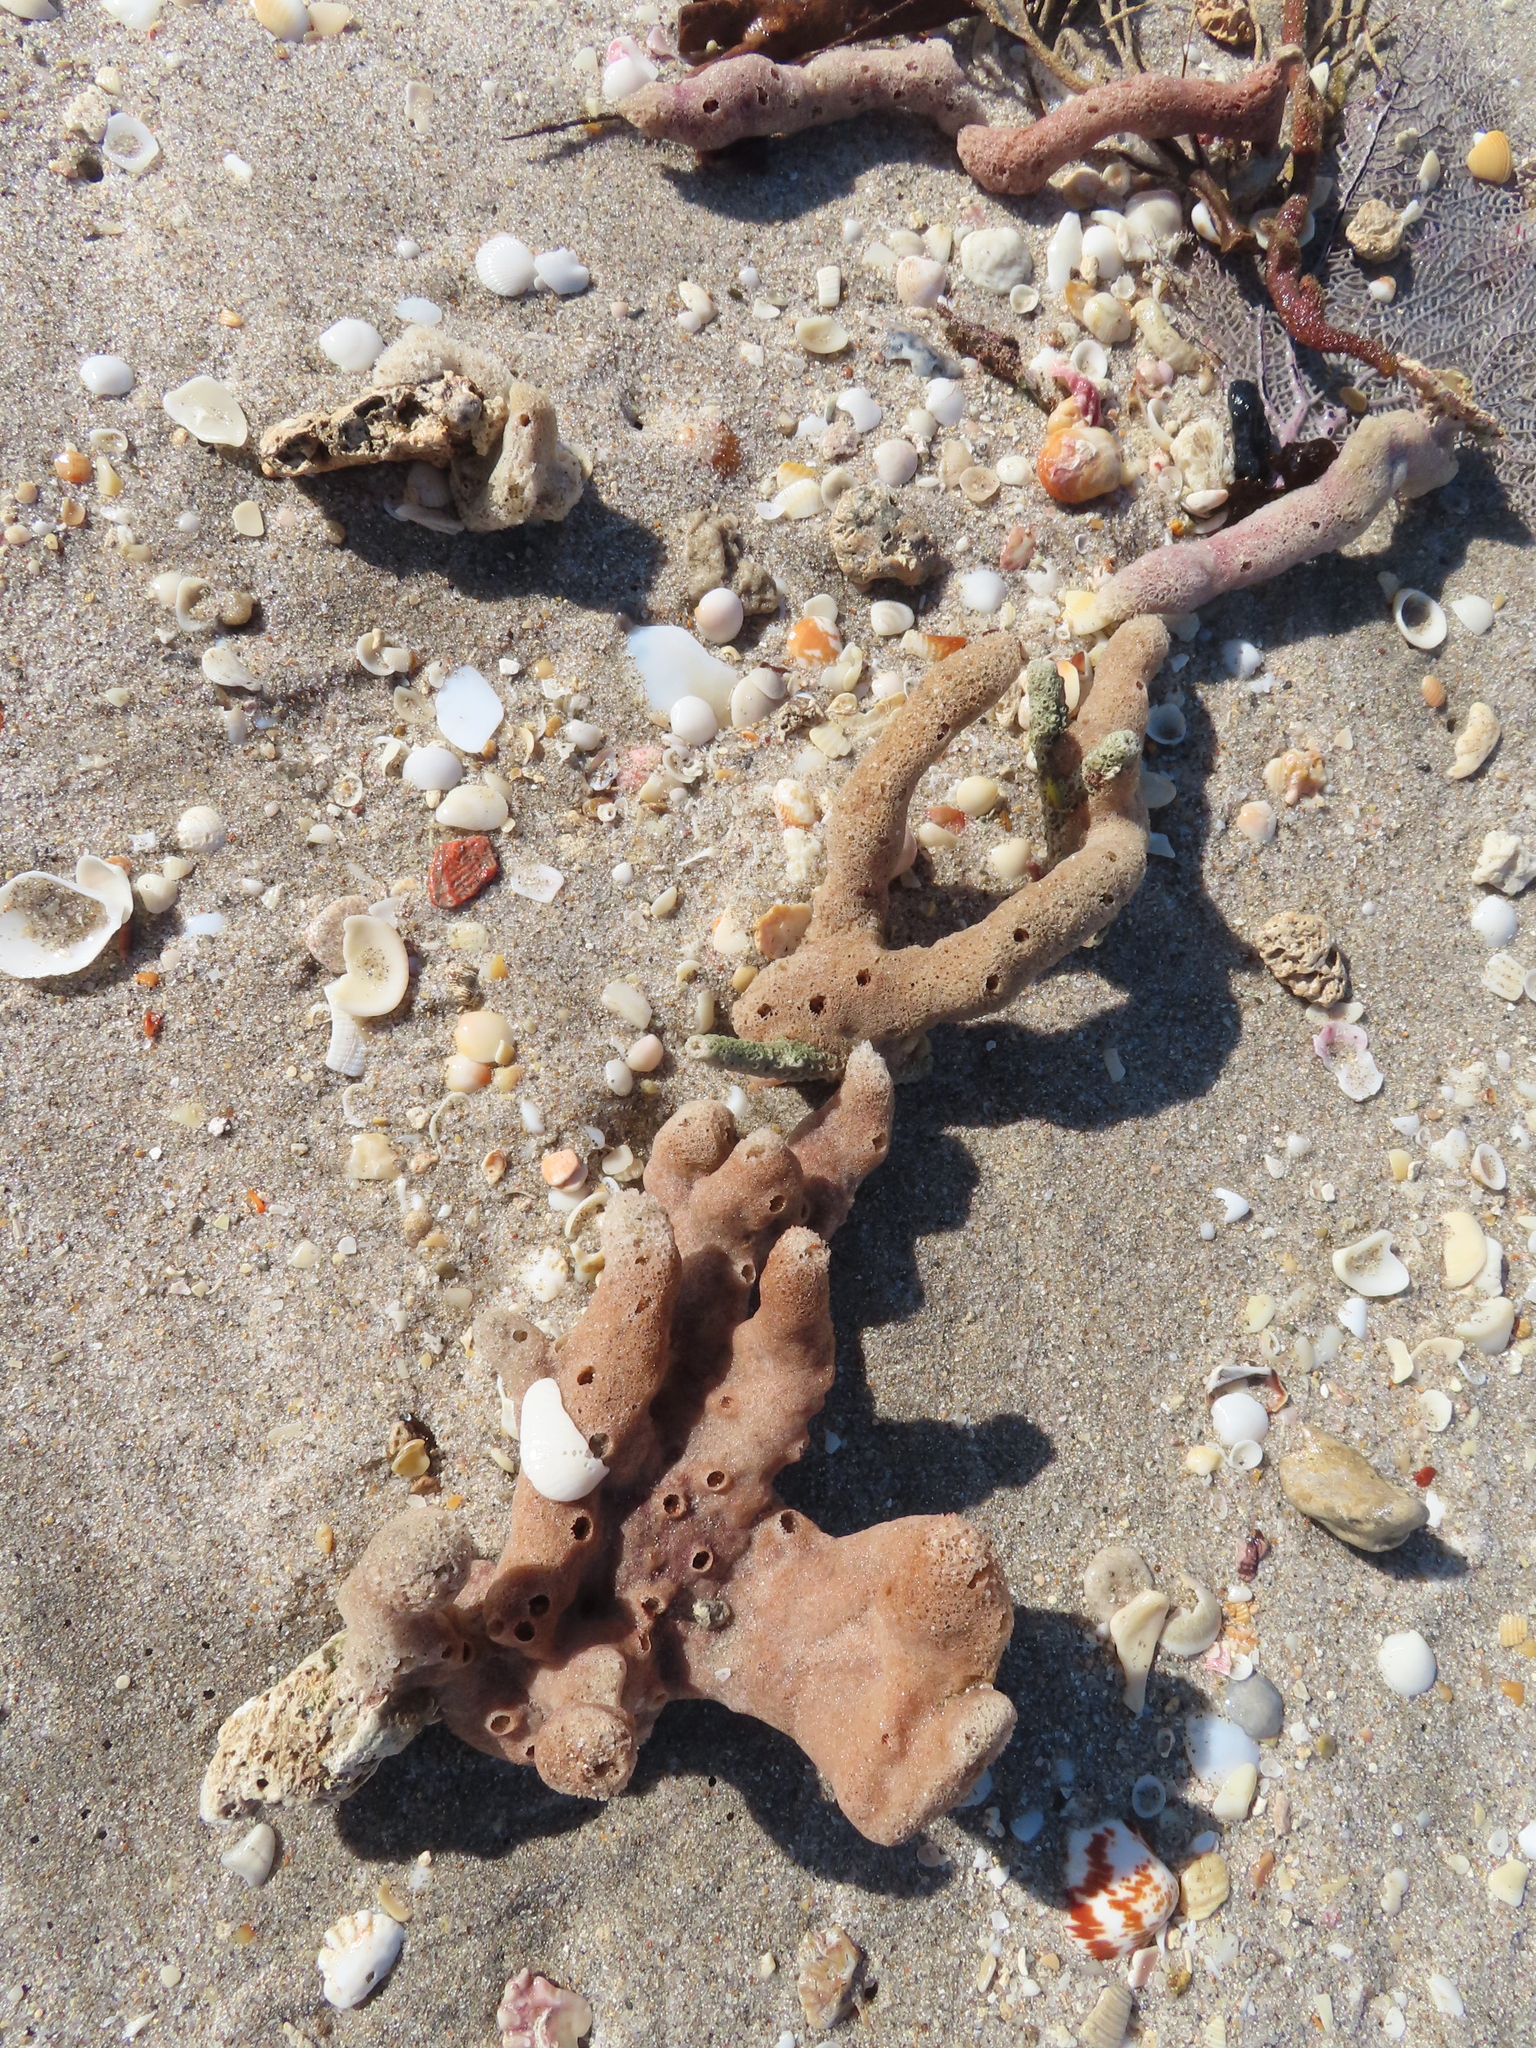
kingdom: Animalia
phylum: Porifera
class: Demospongiae
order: Haplosclerida
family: Niphatidae
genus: Amphimedon
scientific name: Amphimedon compressa
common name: Red sponge
